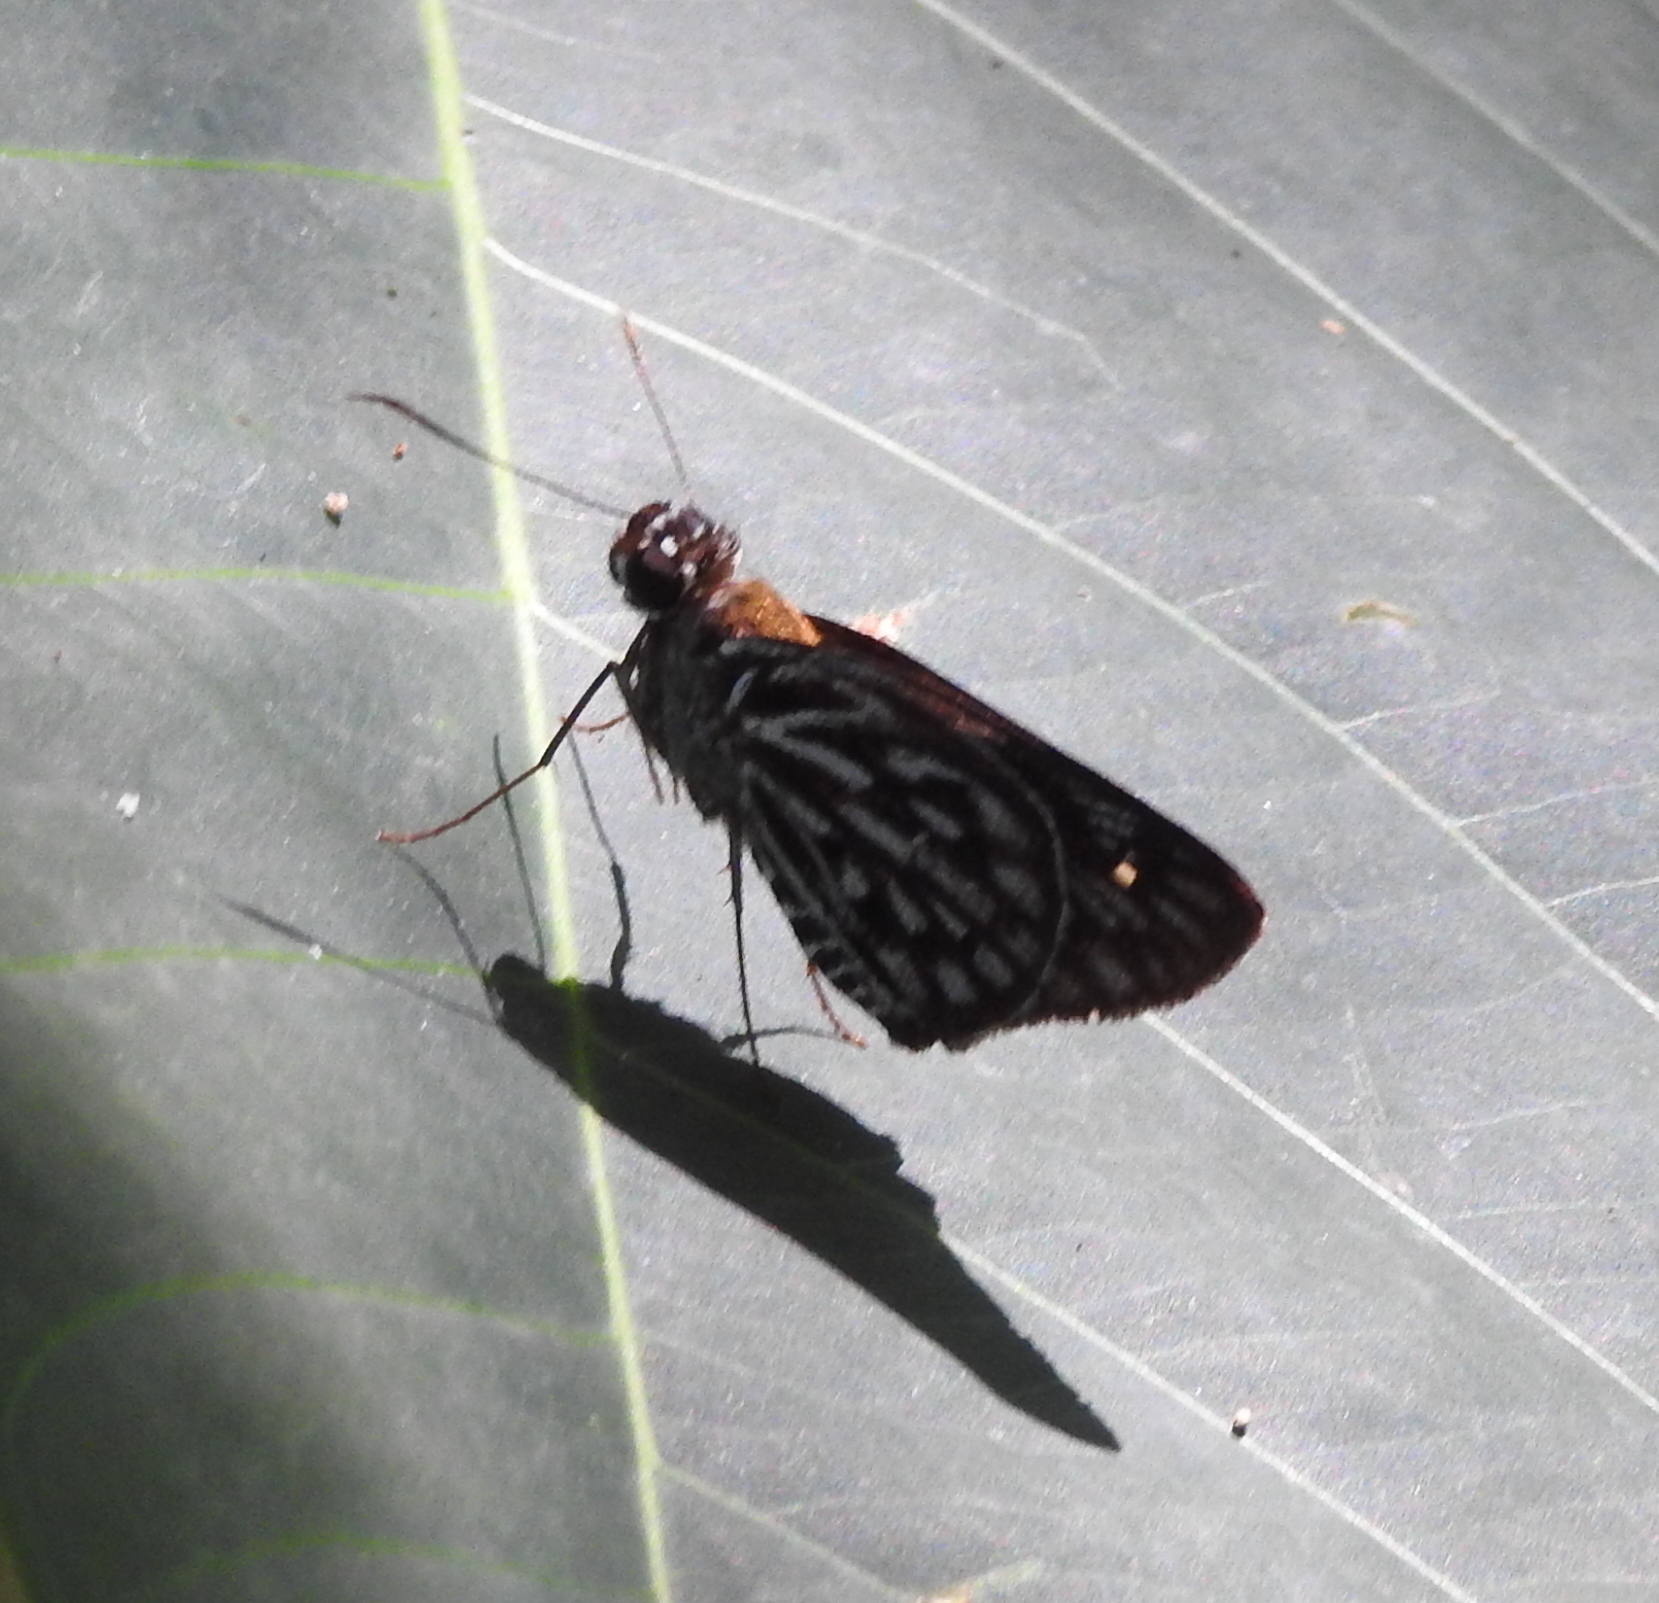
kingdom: Animalia
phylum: Arthropoda
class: Insecta
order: Lepidoptera
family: Hesperiidae
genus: Plastingia
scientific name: Plastingia naga
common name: Chequered lancer
